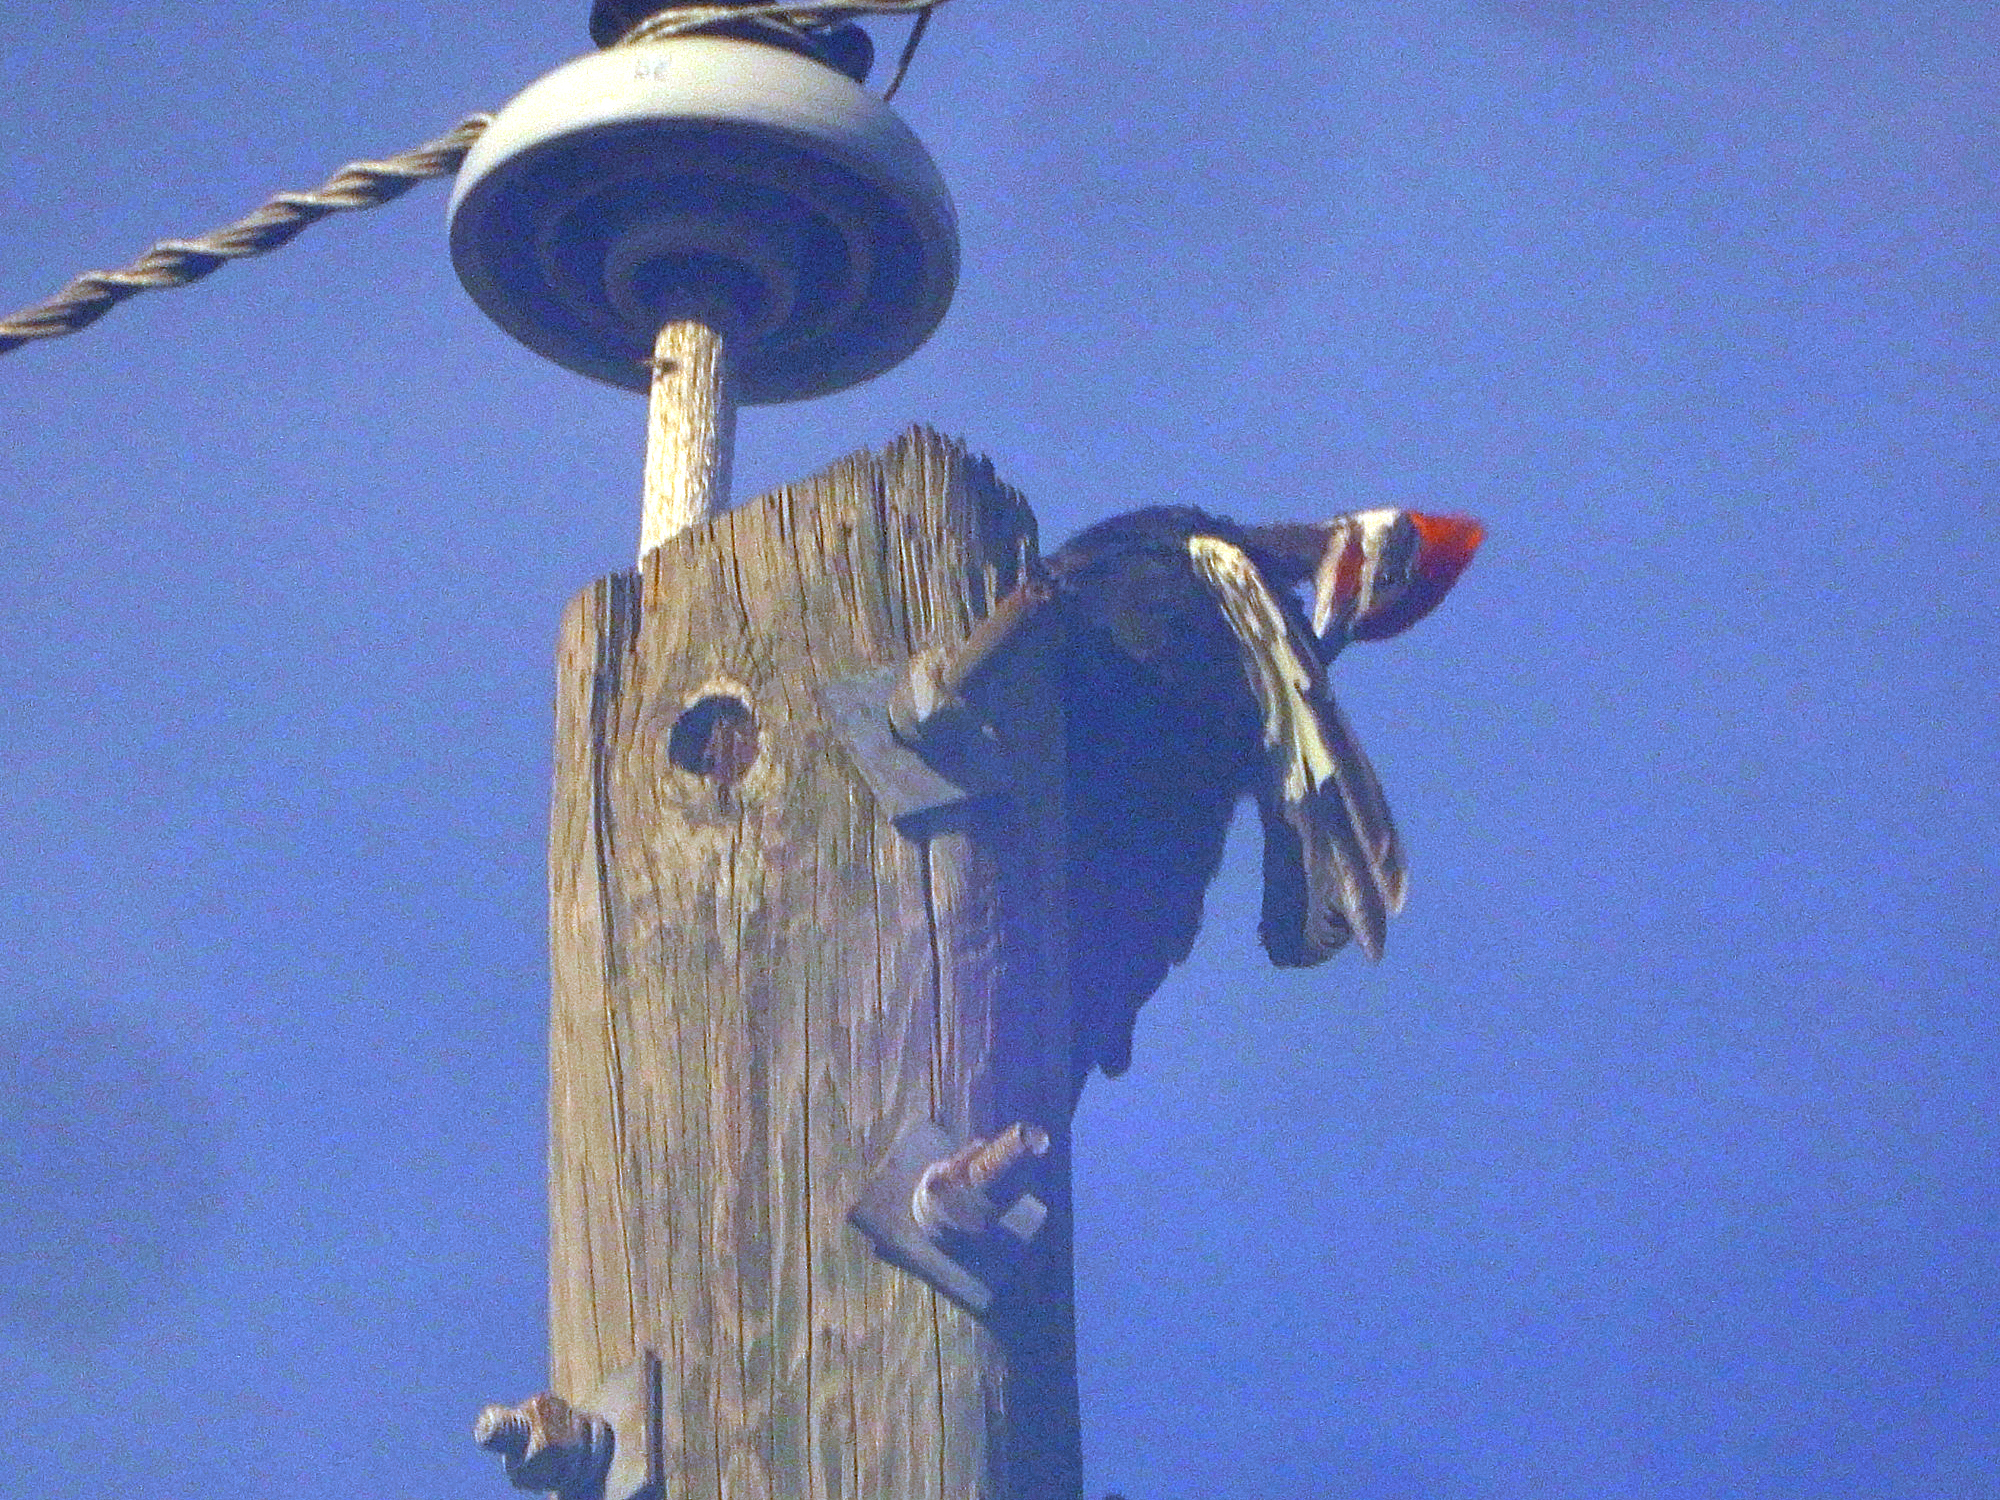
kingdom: Animalia
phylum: Chordata
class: Aves
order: Piciformes
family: Picidae
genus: Dryocopus
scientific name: Dryocopus pileatus
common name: Pileated woodpecker
